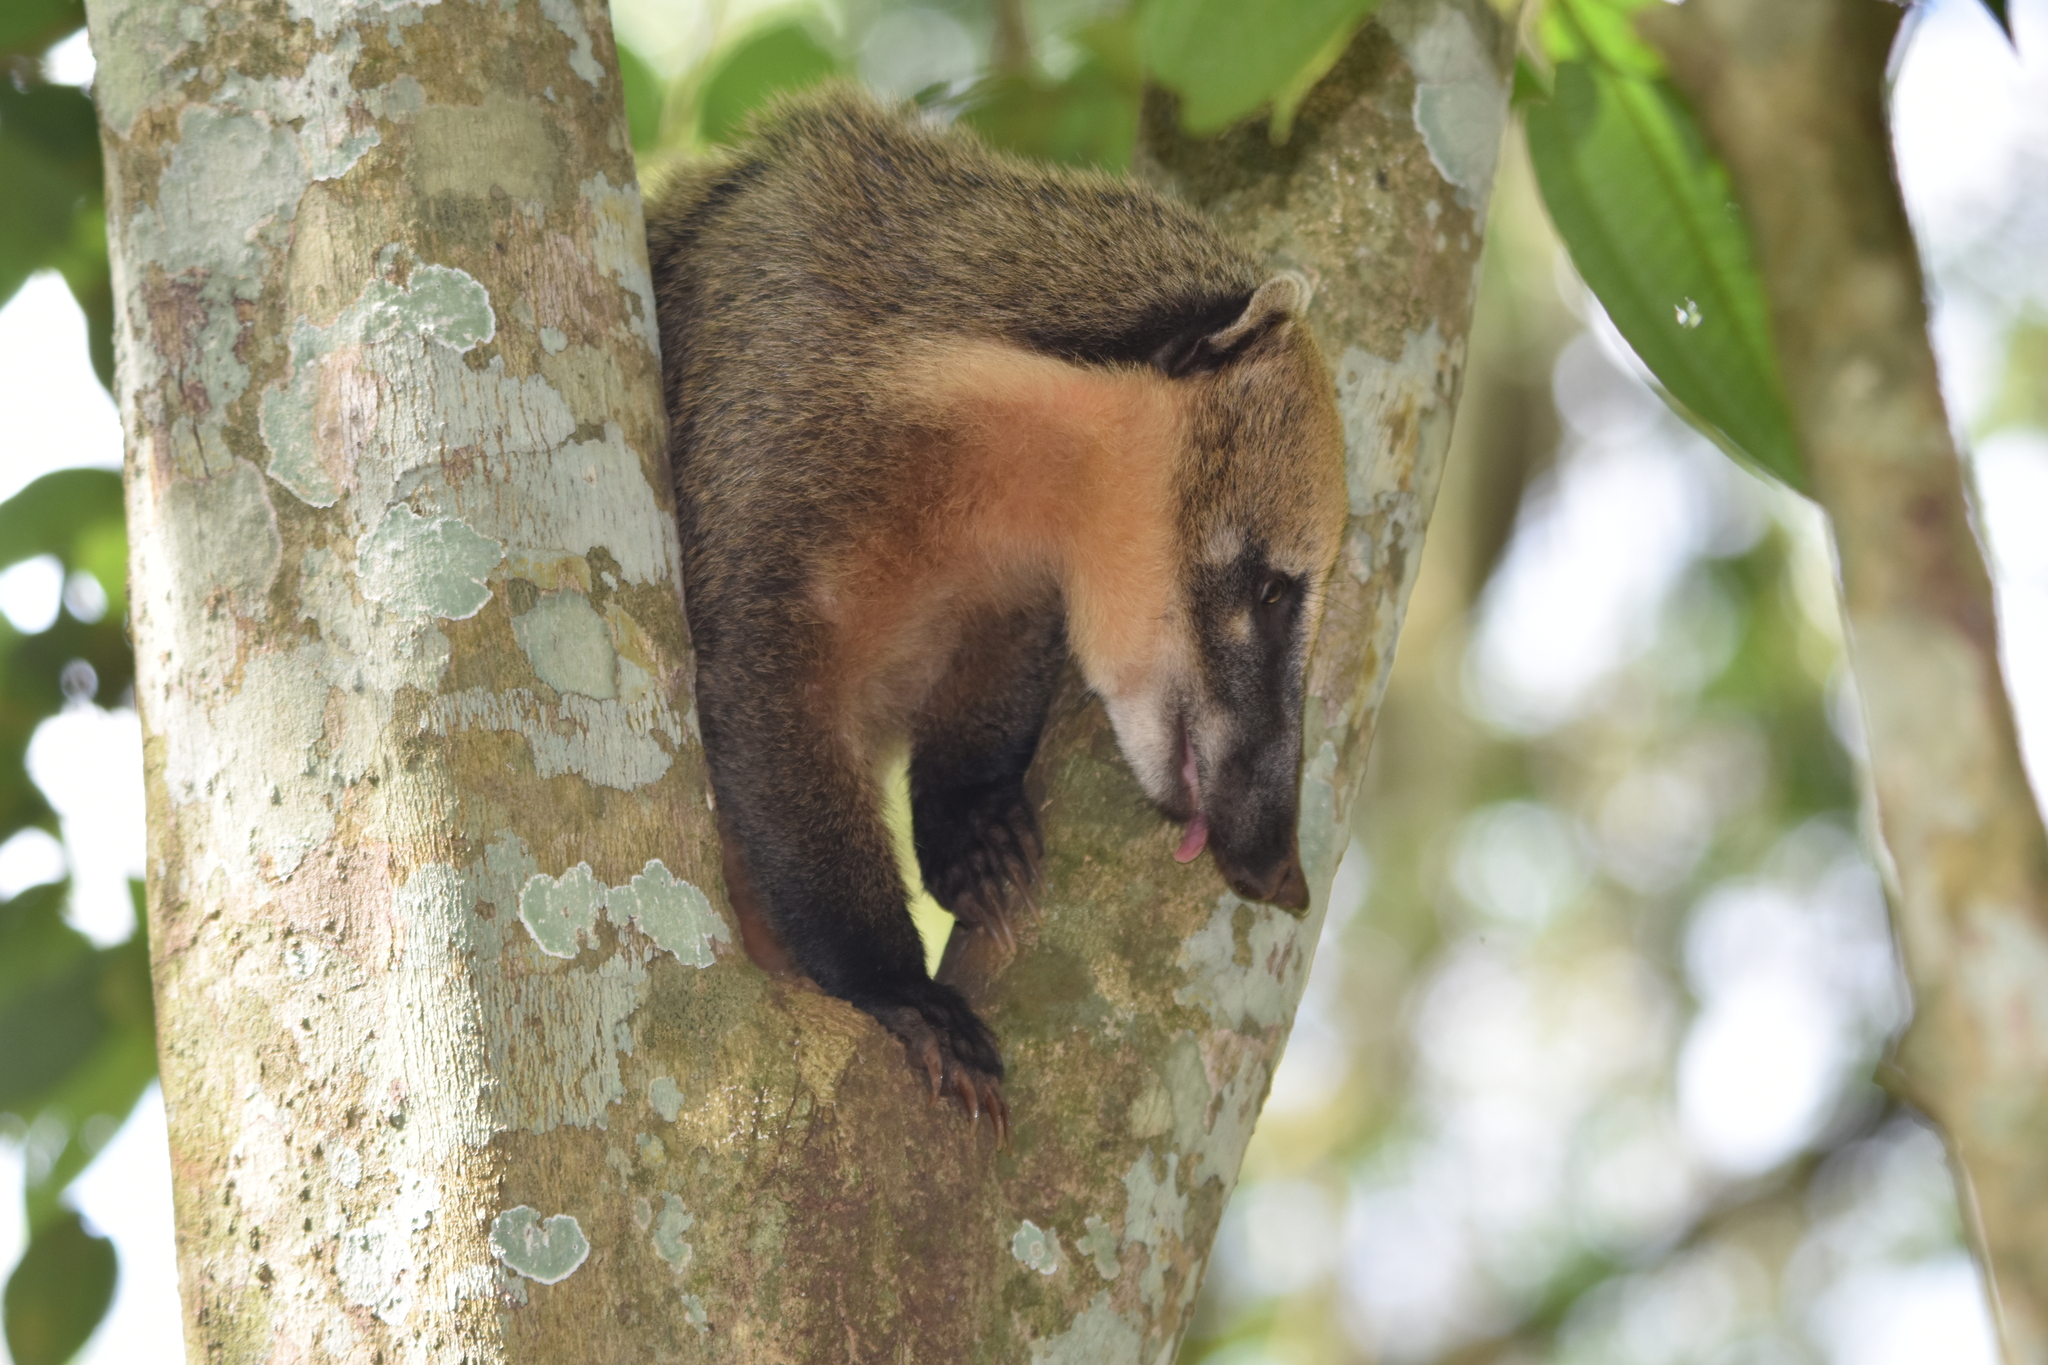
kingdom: Animalia
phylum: Chordata
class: Mammalia
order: Carnivora
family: Procyonidae
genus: Nasua
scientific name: Nasua nasua
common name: South american coati
